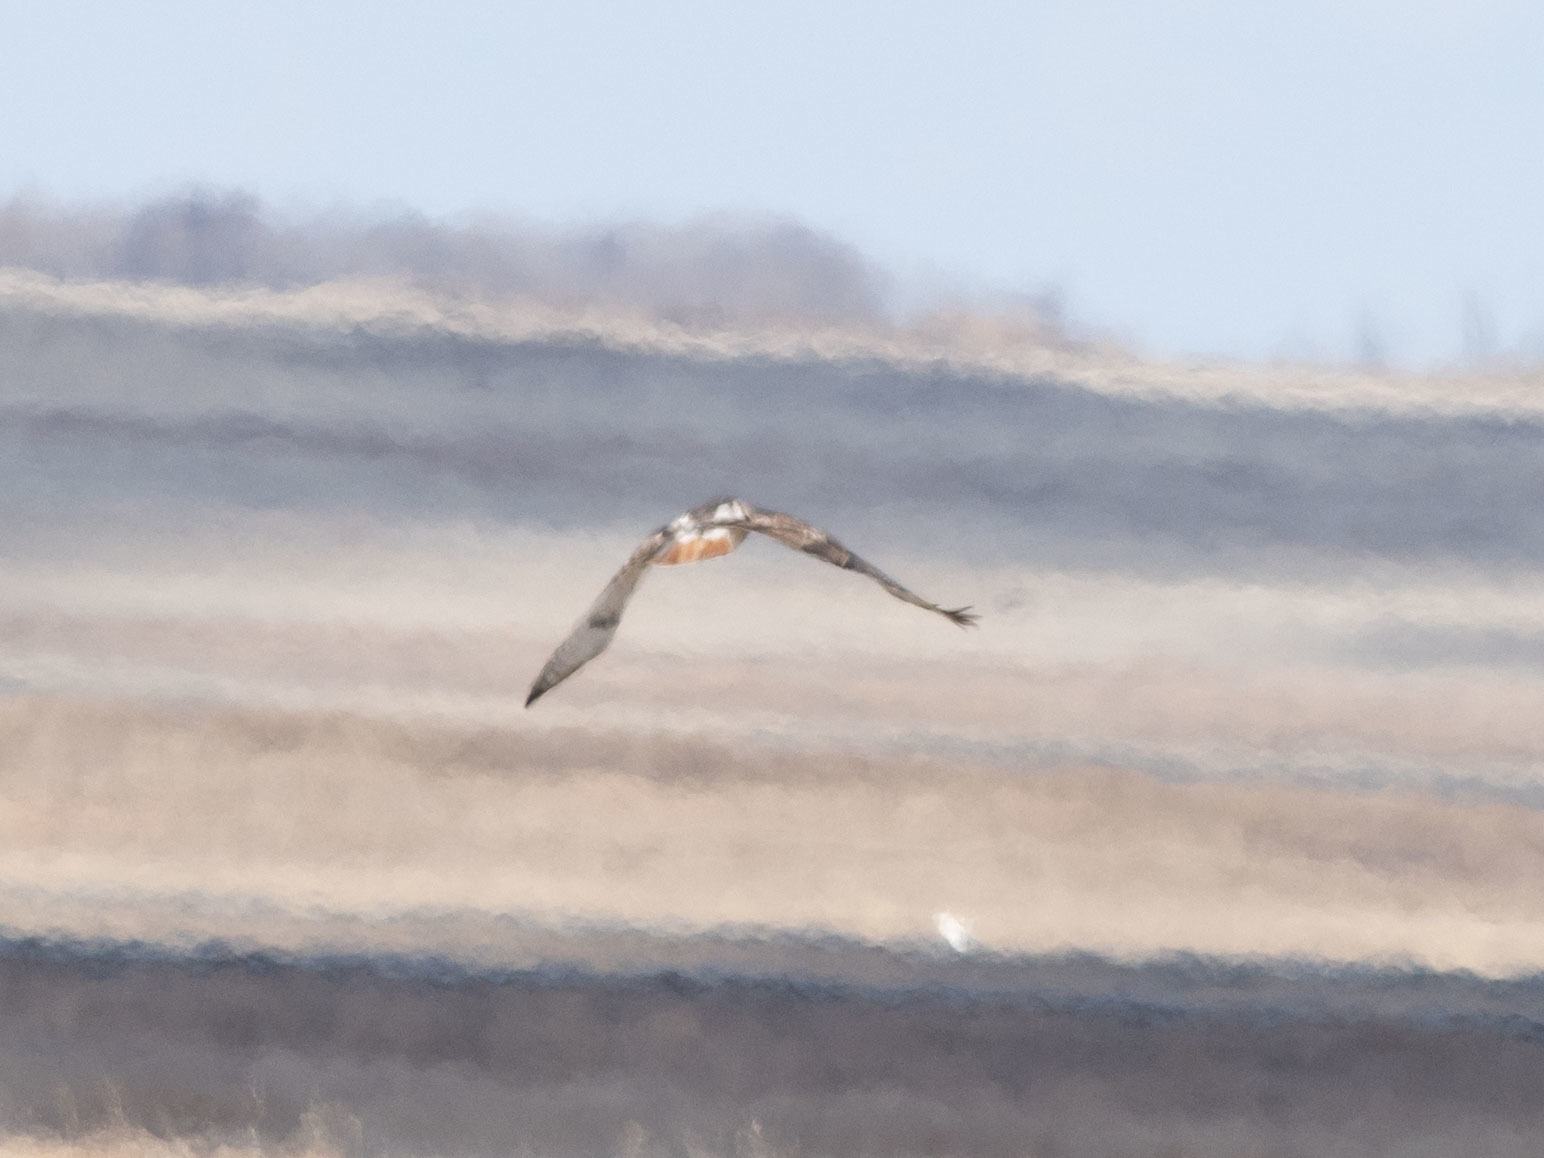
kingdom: Animalia
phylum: Chordata
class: Aves
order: Accipitriformes
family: Accipitridae
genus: Buteo
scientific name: Buteo jamaicensis
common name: Red-tailed hawk
